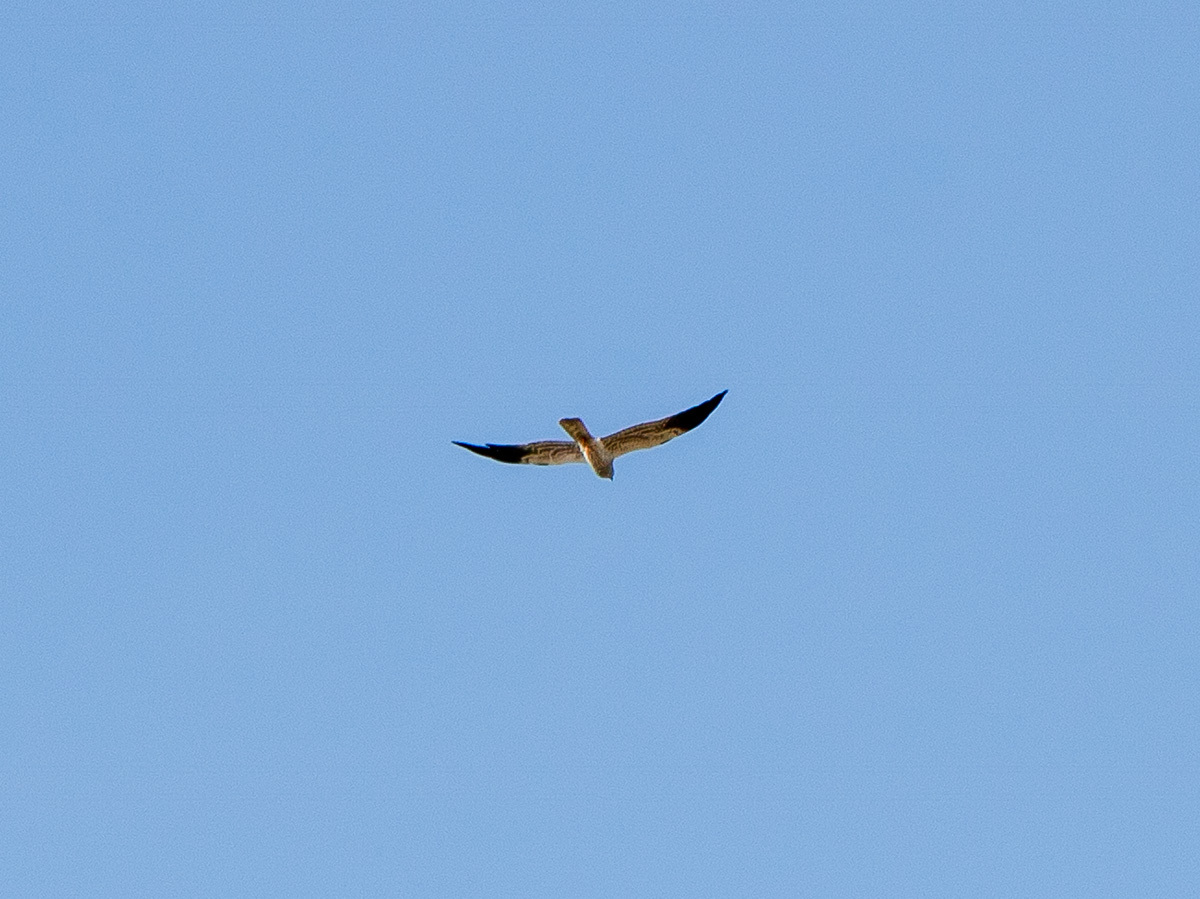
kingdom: Animalia
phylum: Chordata
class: Aves
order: Accipitriformes
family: Accipitridae
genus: Circus
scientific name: Circus pygargus
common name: Montagu's harrier
